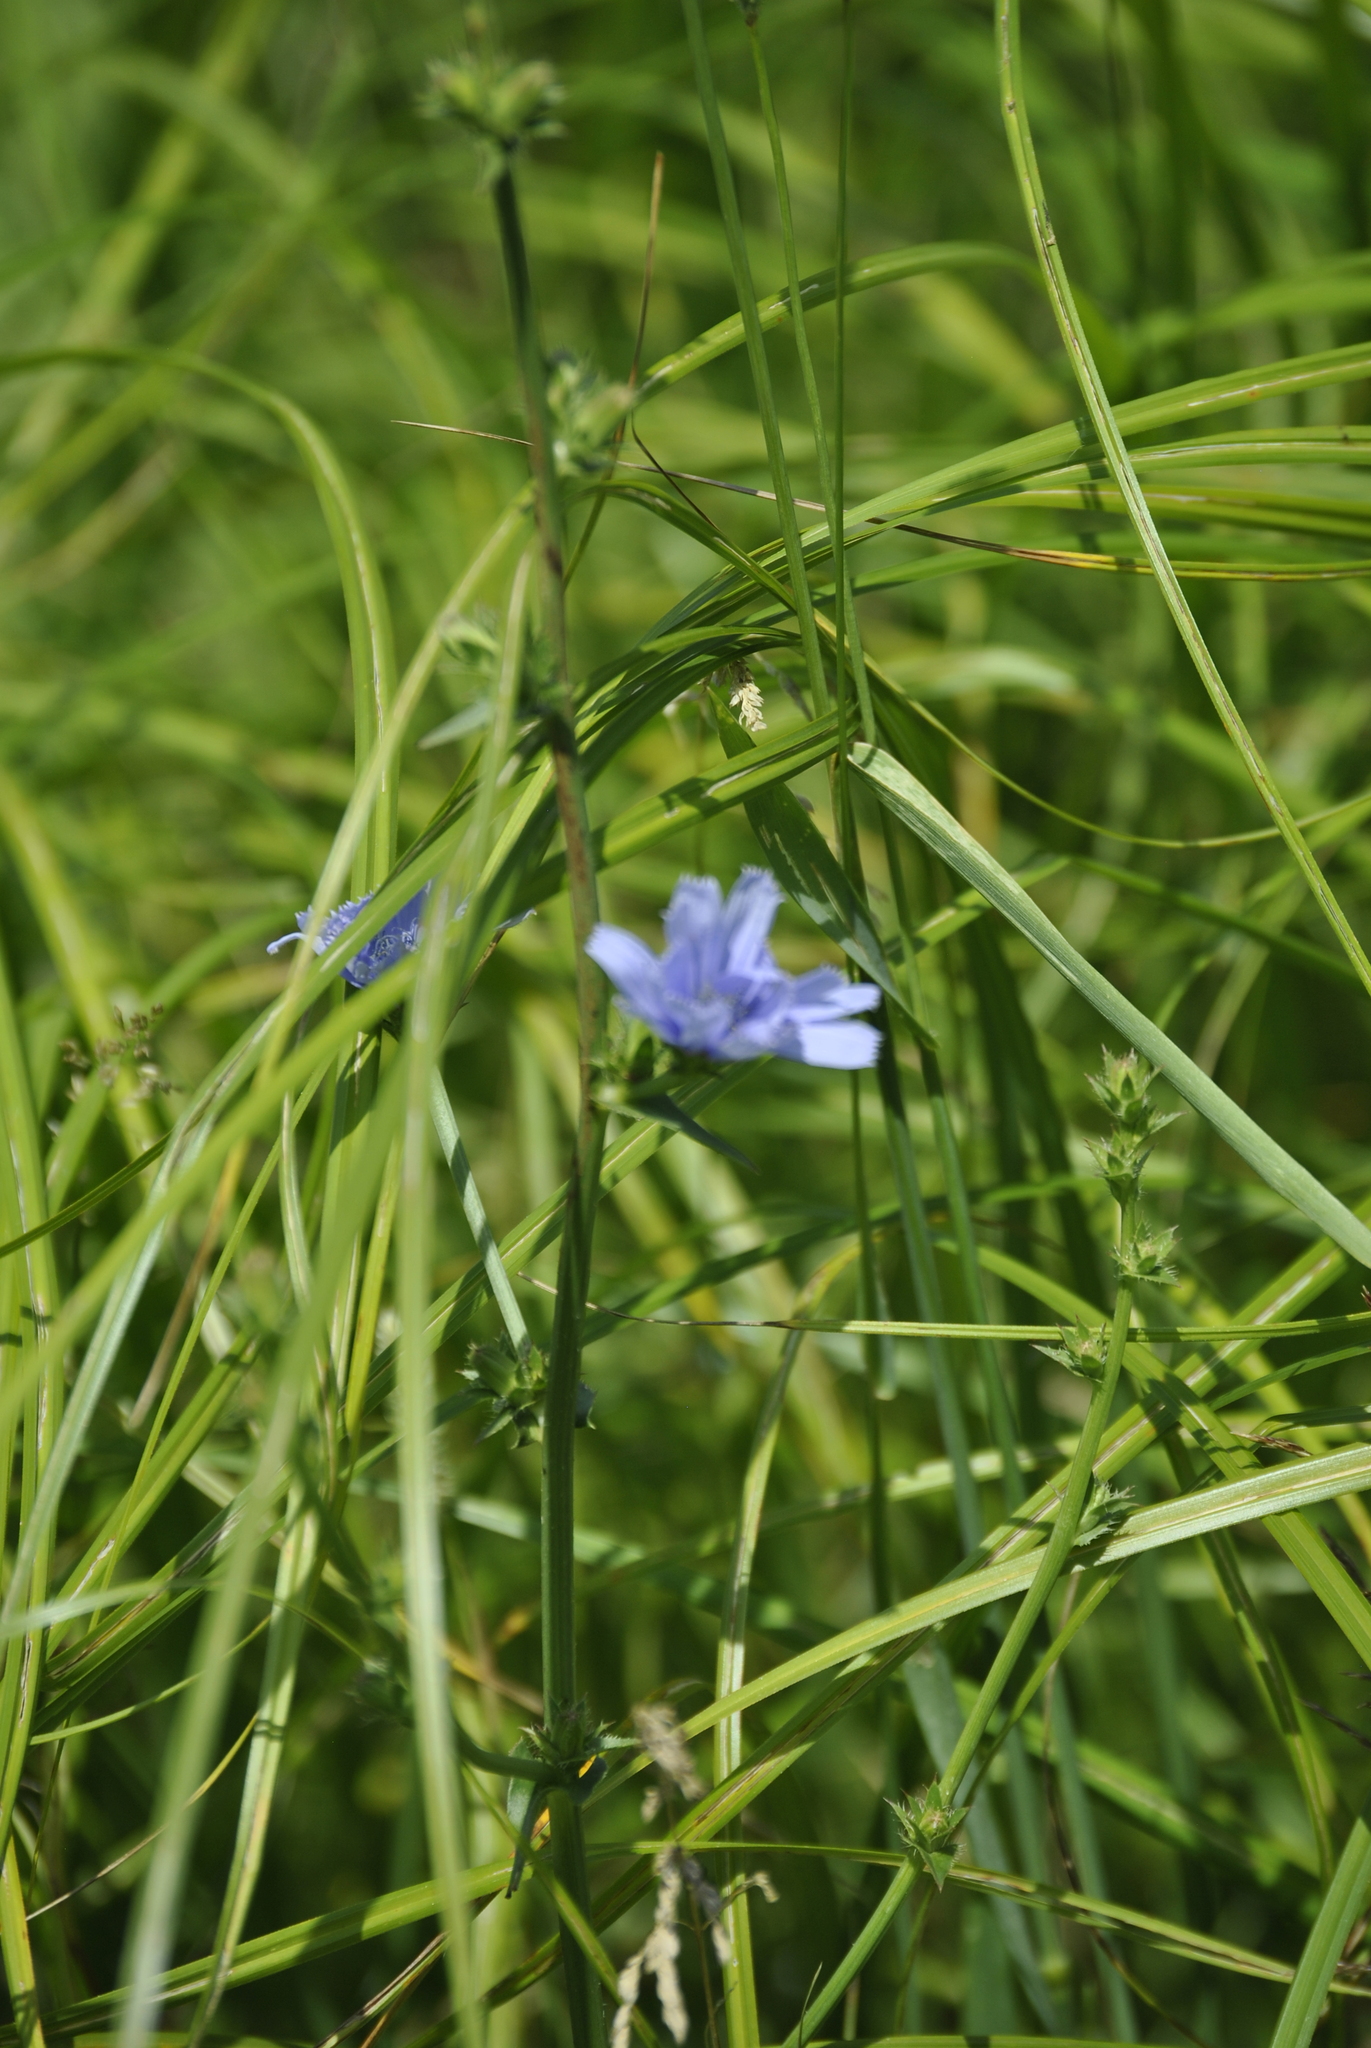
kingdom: Plantae
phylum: Tracheophyta
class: Magnoliopsida
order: Asterales
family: Asteraceae
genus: Cichorium
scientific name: Cichorium intybus
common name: Chicory
